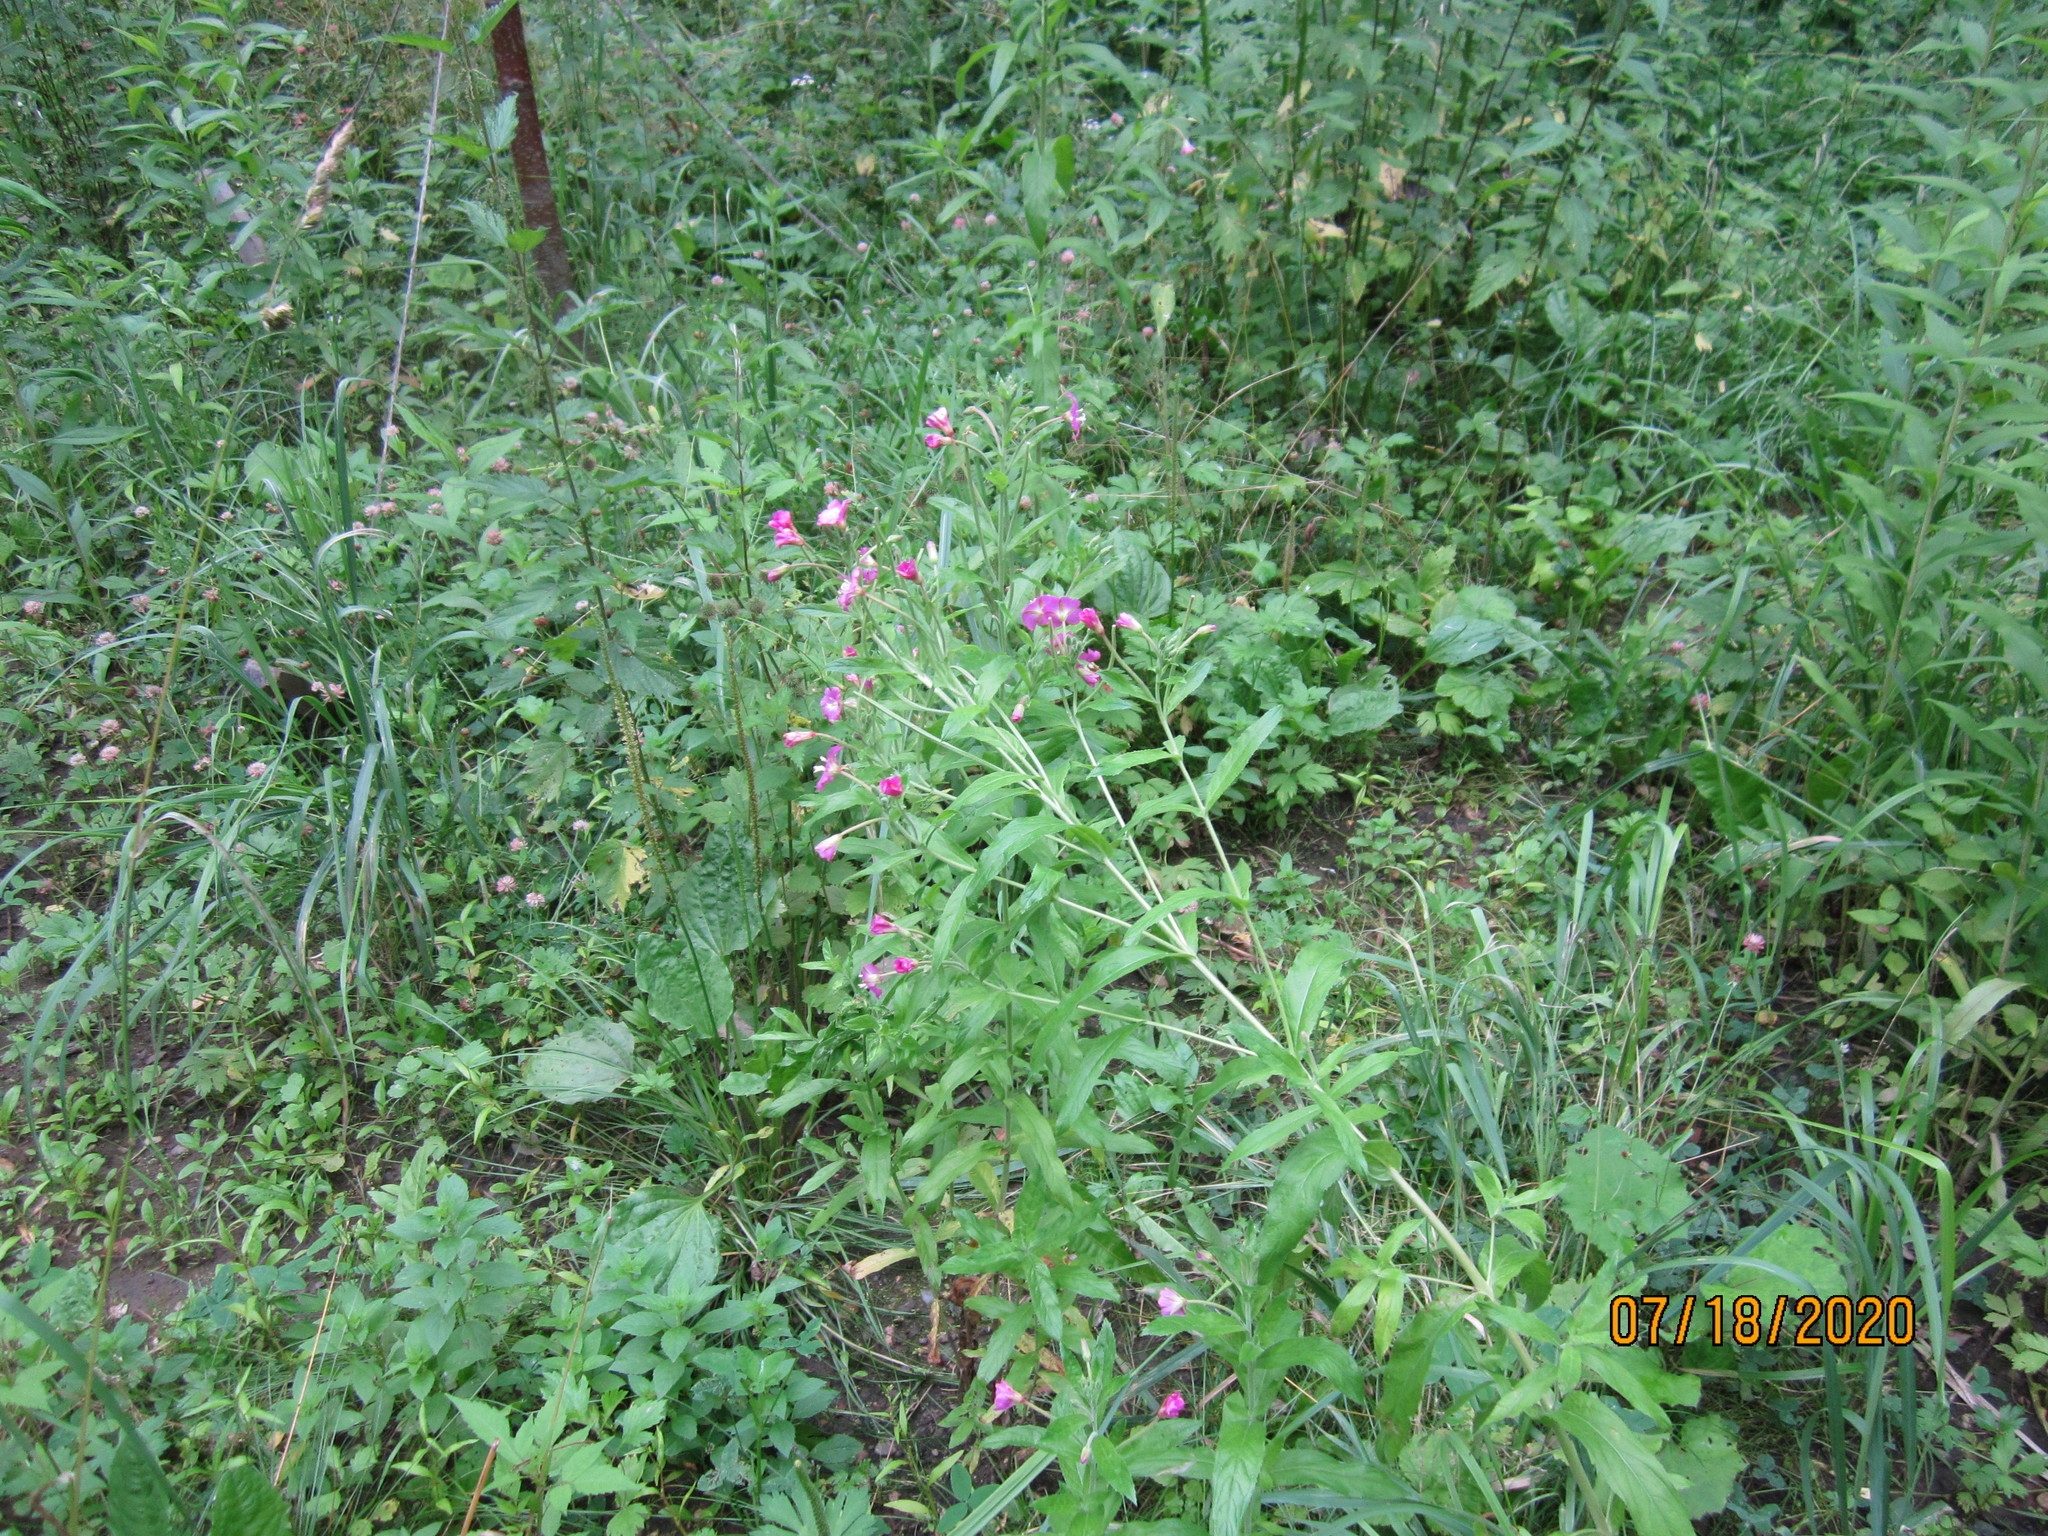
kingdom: Plantae
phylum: Tracheophyta
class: Magnoliopsida
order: Myrtales
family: Onagraceae
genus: Epilobium
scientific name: Epilobium hirsutum
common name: Great willowherb
